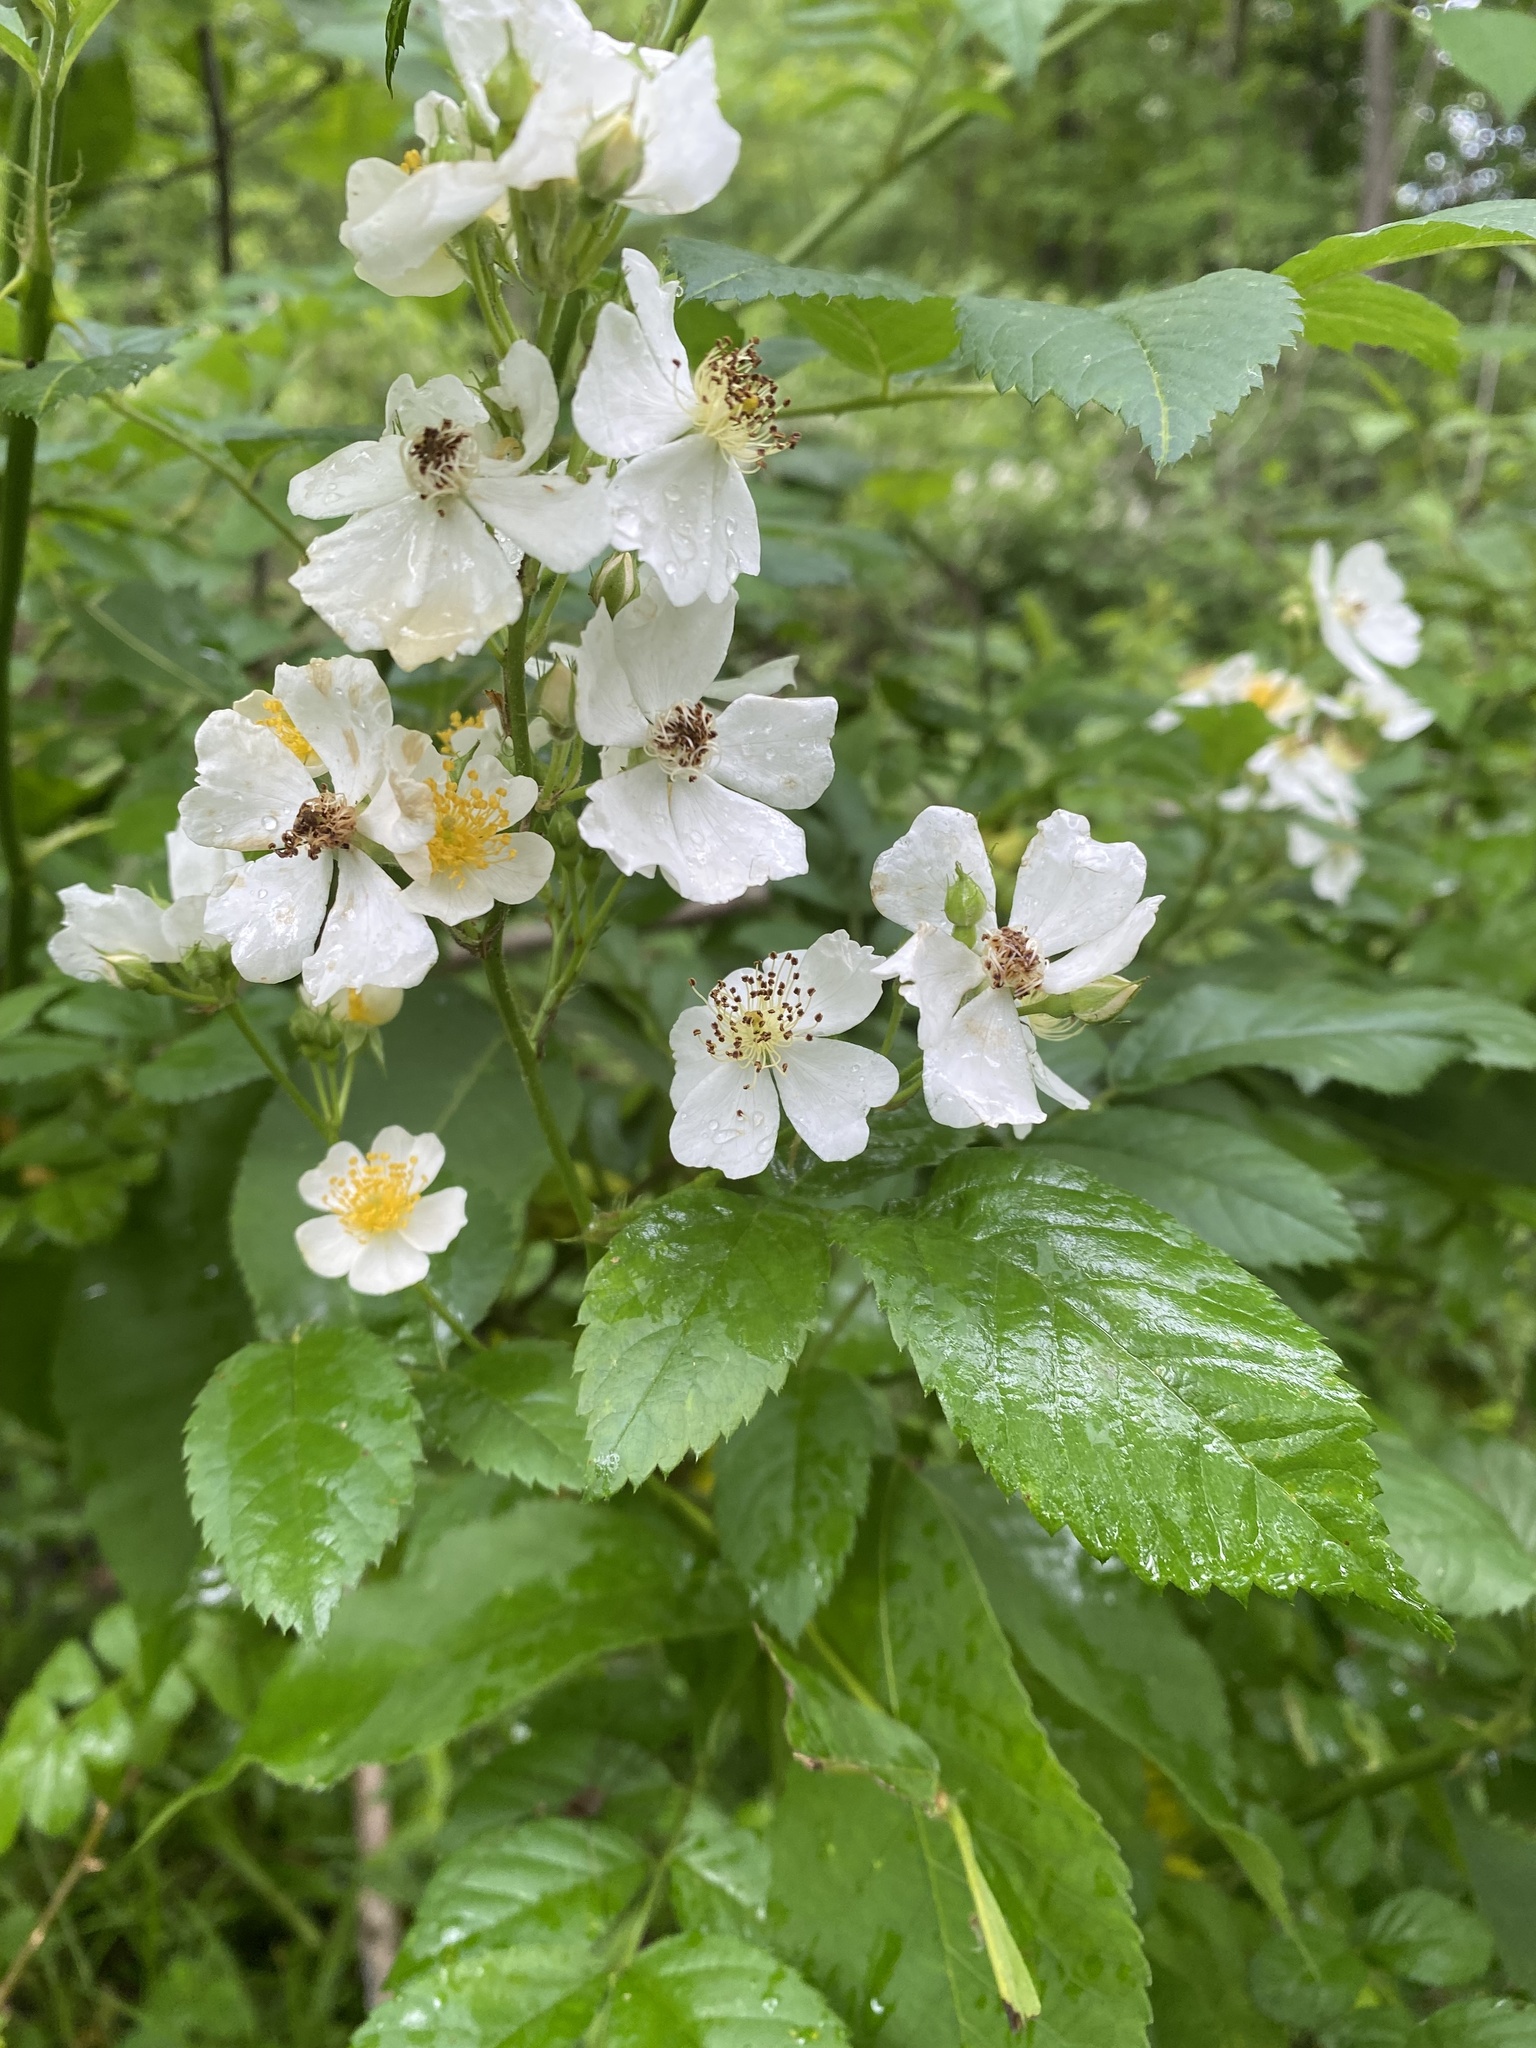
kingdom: Plantae
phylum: Tracheophyta
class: Magnoliopsida
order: Rosales
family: Rosaceae
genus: Rosa
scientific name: Rosa multiflora
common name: Multiflora rose
